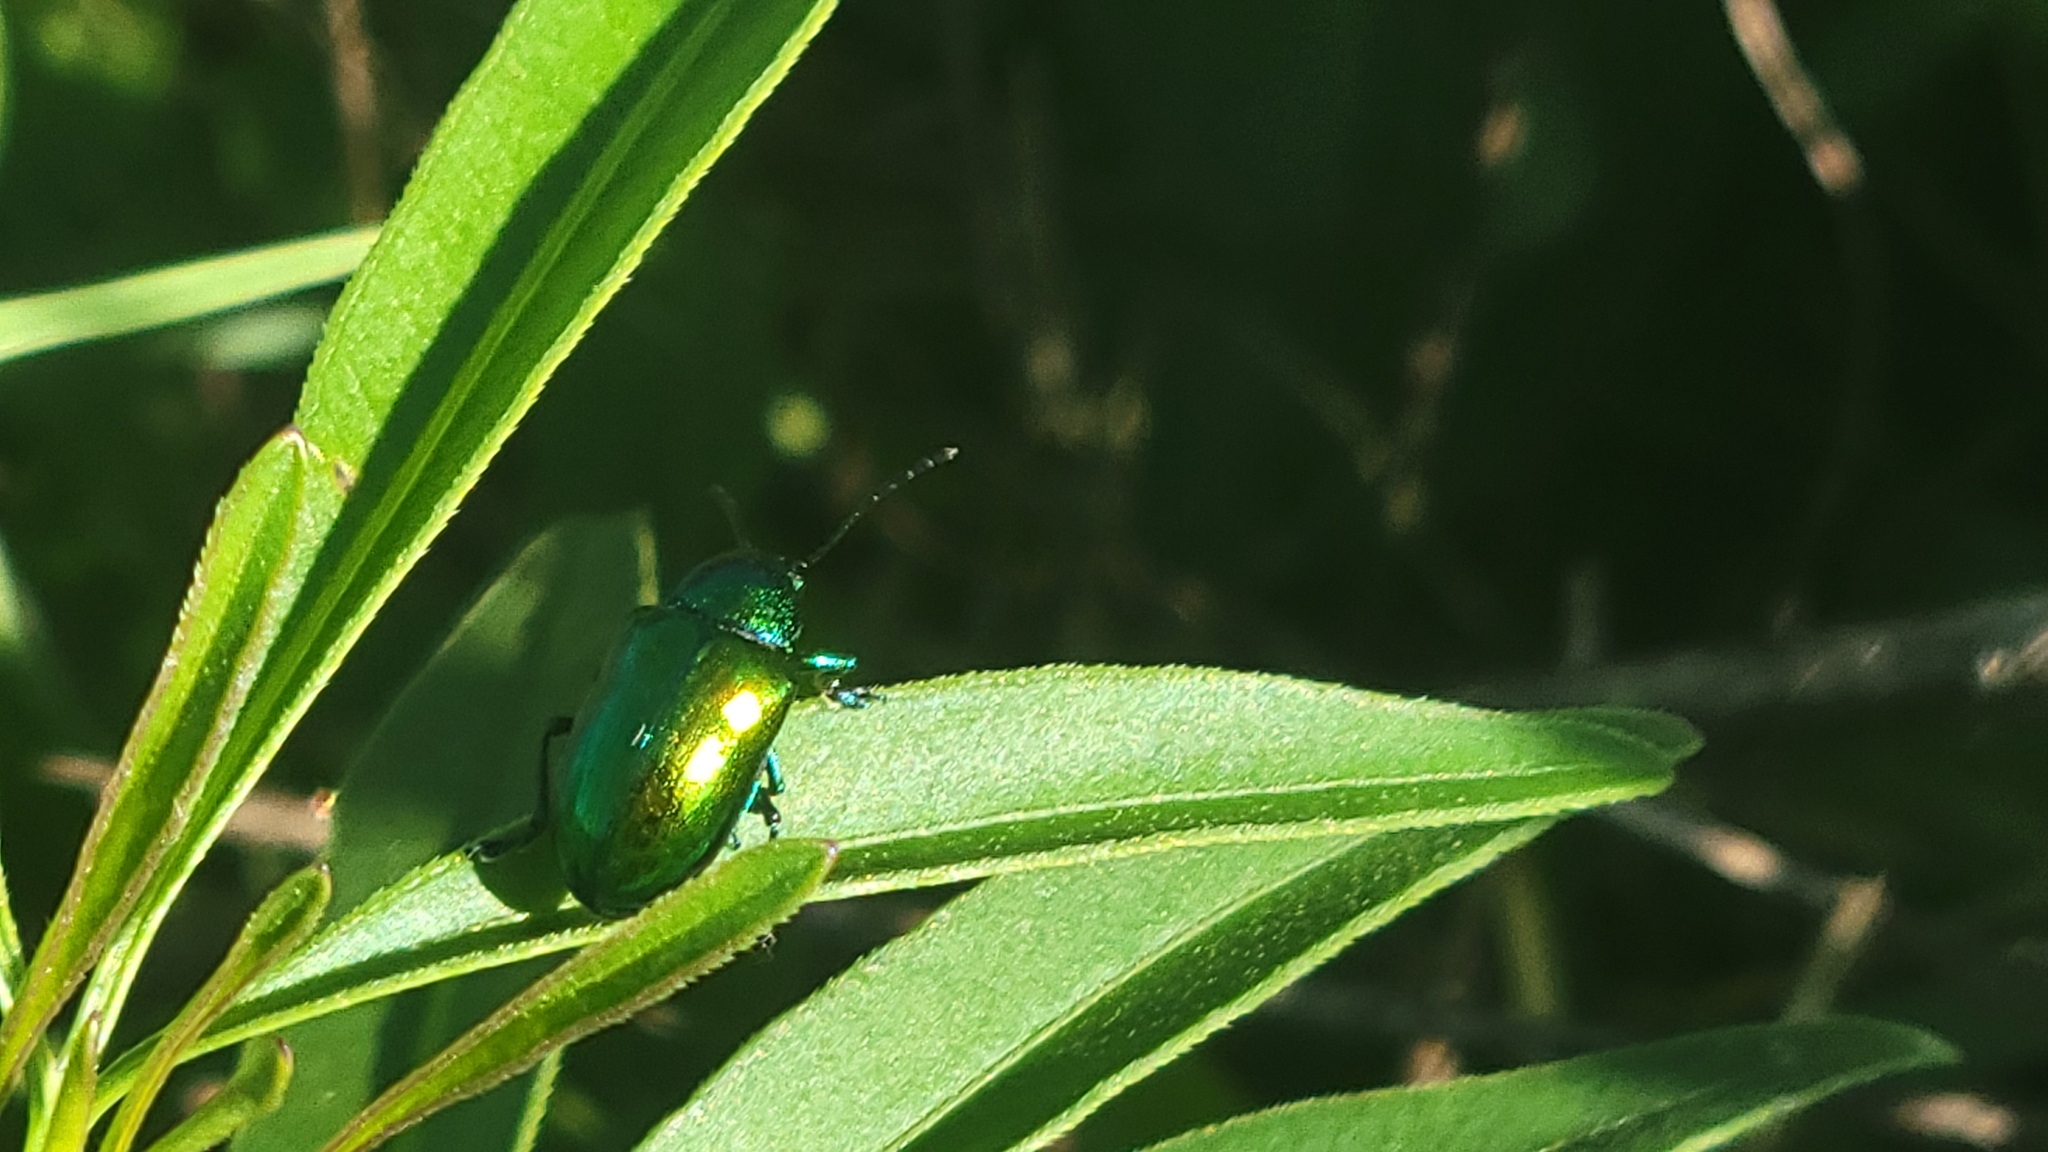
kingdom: Animalia
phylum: Arthropoda
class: Insecta
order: Coleoptera
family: Chrysomelidae
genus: Chrysochus
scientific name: Chrysochus auratus
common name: Dogbane leaf beetle
